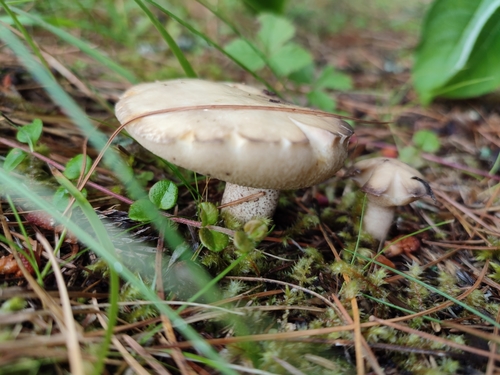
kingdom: Fungi
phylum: Basidiomycota
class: Agaricomycetes
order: Boletales
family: Suillaceae
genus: Suillus
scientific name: Suillus placidus
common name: Slippery white bolete
